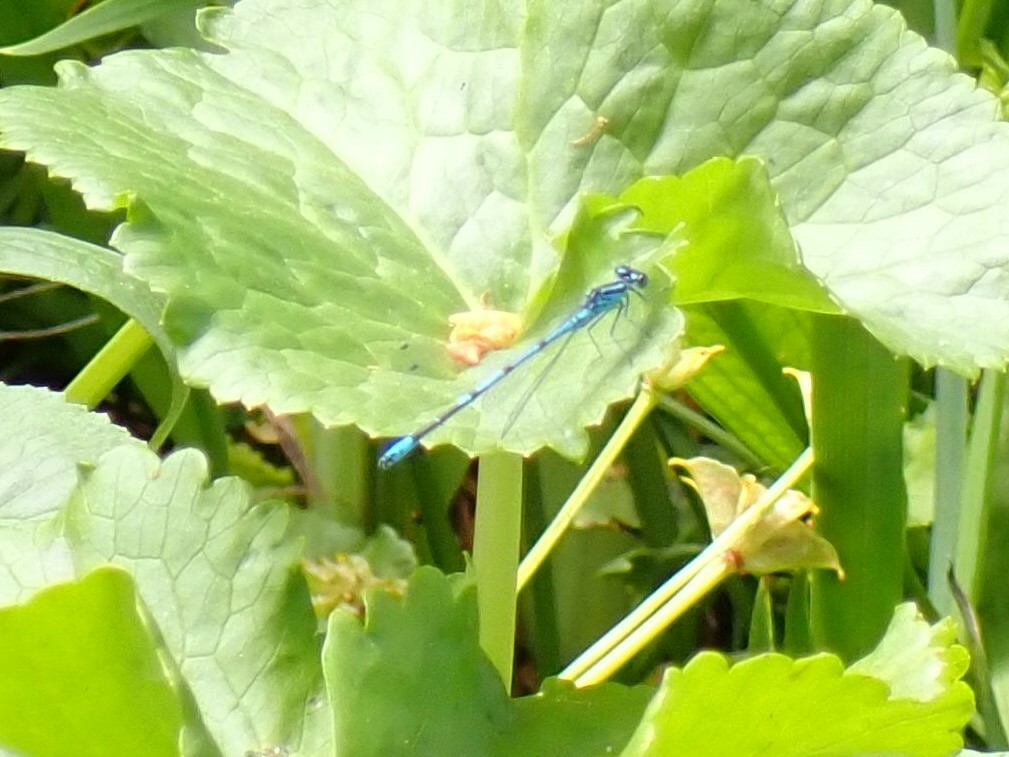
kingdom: Animalia
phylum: Arthropoda
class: Insecta
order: Odonata
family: Coenagrionidae
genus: Coenagrion
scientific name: Coenagrion puella
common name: Azure damselfly
